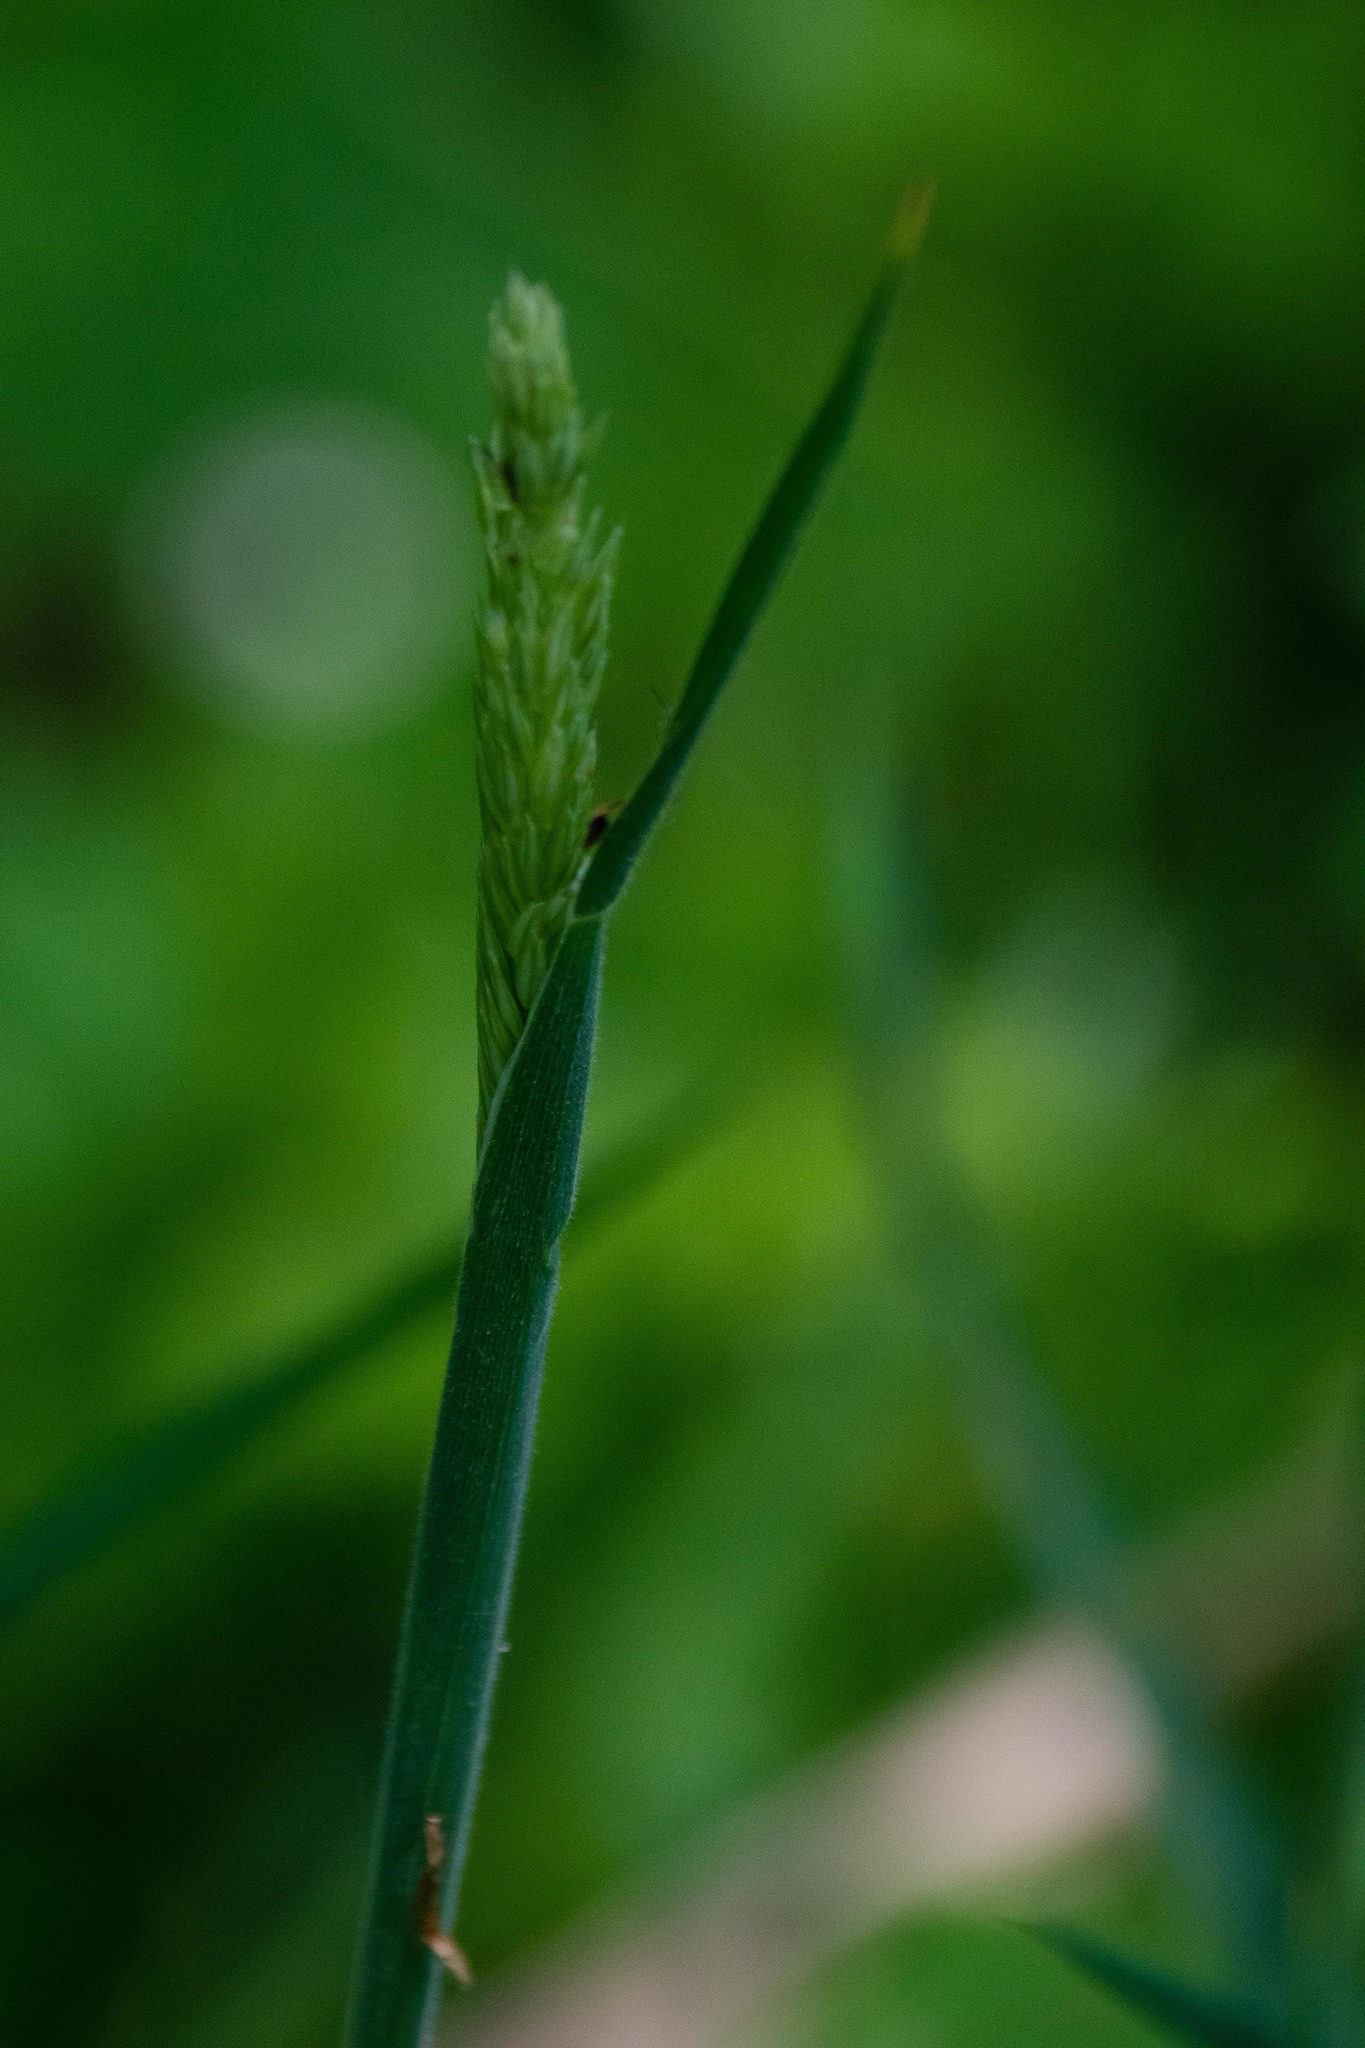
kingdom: Plantae
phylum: Tracheophyta
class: Liliopsida
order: Poales
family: Poaceae
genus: Dactylis
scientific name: Dactylis glomerata
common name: Orchardgrass
